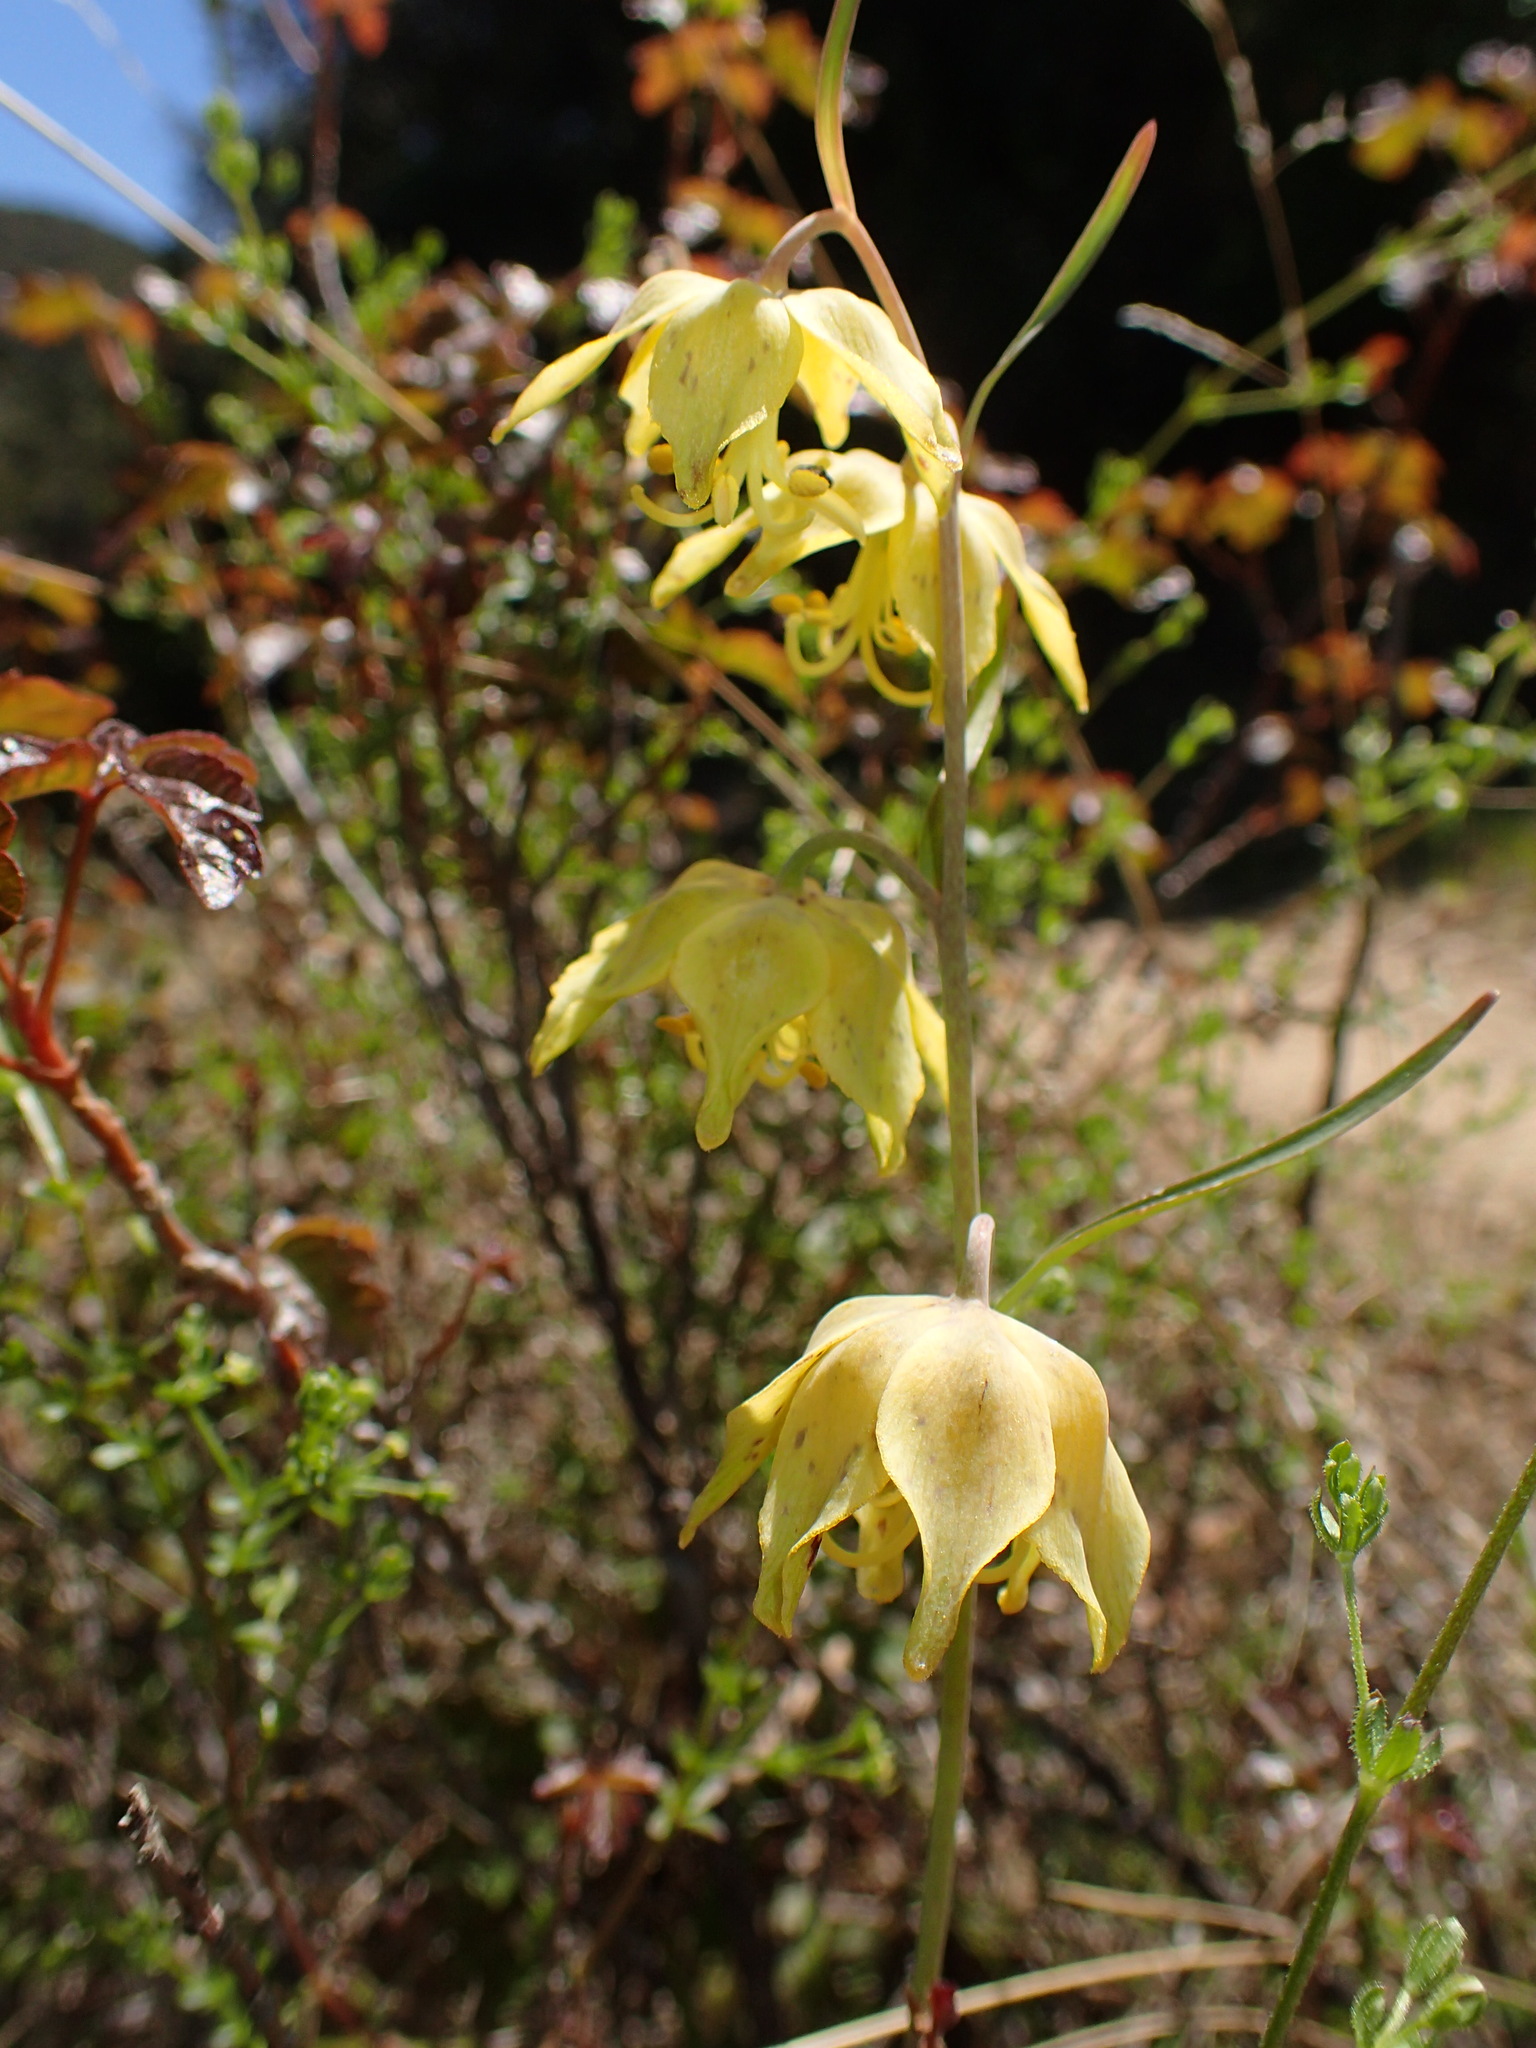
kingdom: Plantae
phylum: Tracheophyta
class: Liliopsida
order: Liliales
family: Liliaceae
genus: Fritillaria
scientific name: Fritillaria ojaiensis
